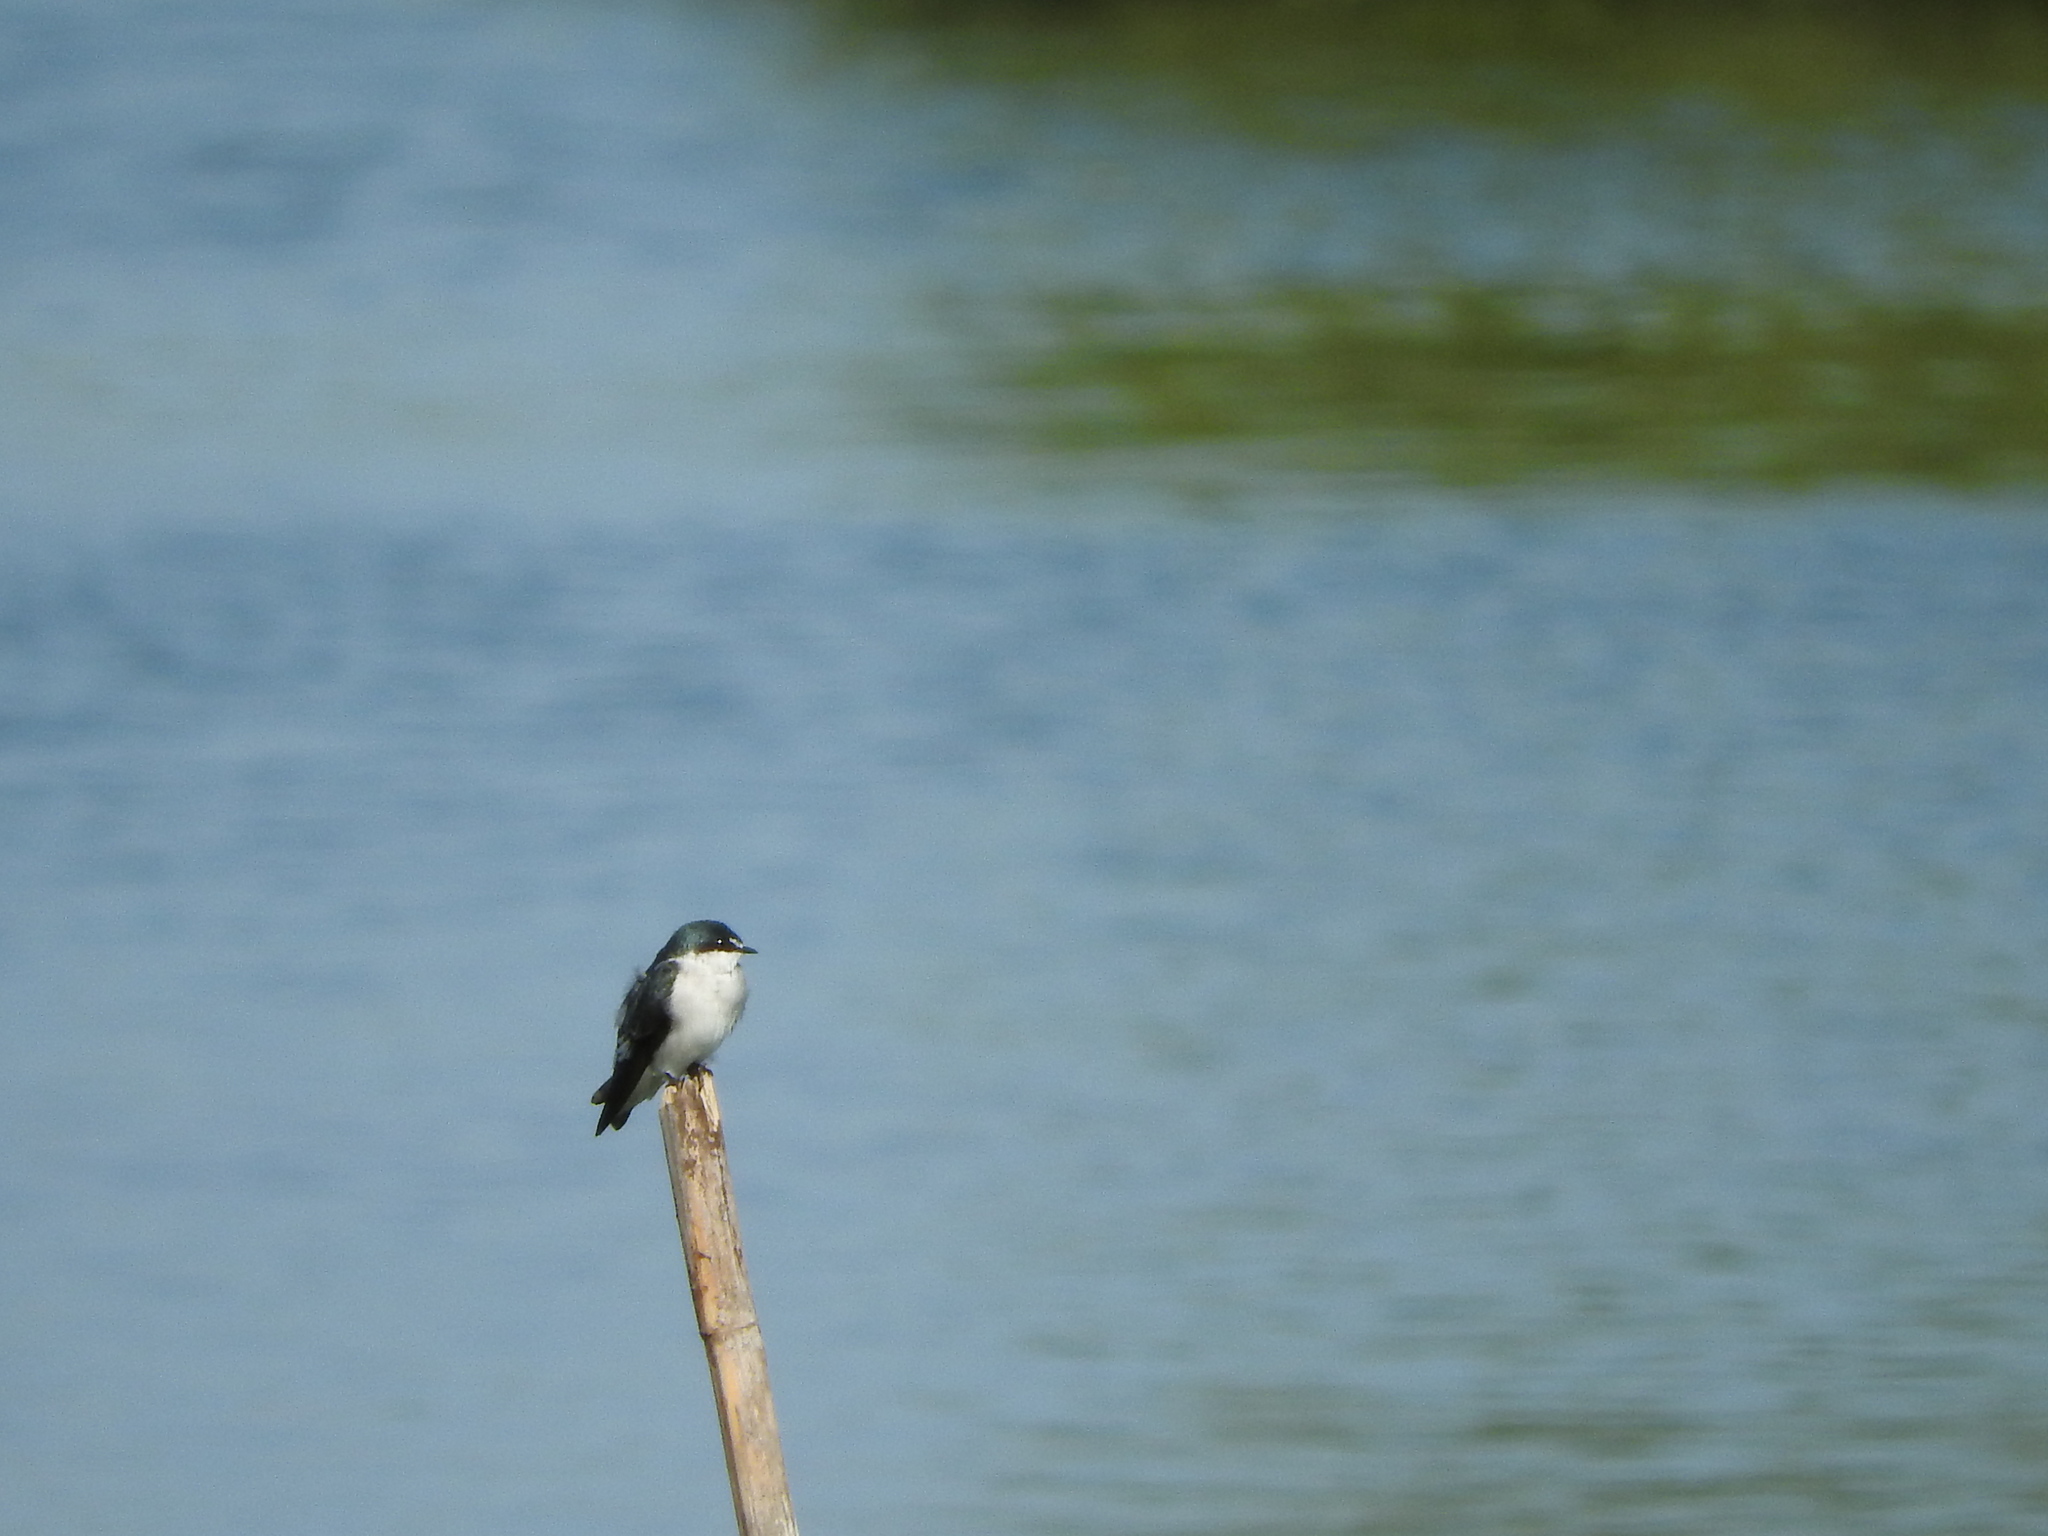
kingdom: Animalia
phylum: Chordata
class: Aves
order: Passeriformes
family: Hirundinidae
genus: Tachycineta
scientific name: Tachycineta bicolor
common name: Tree swallow
